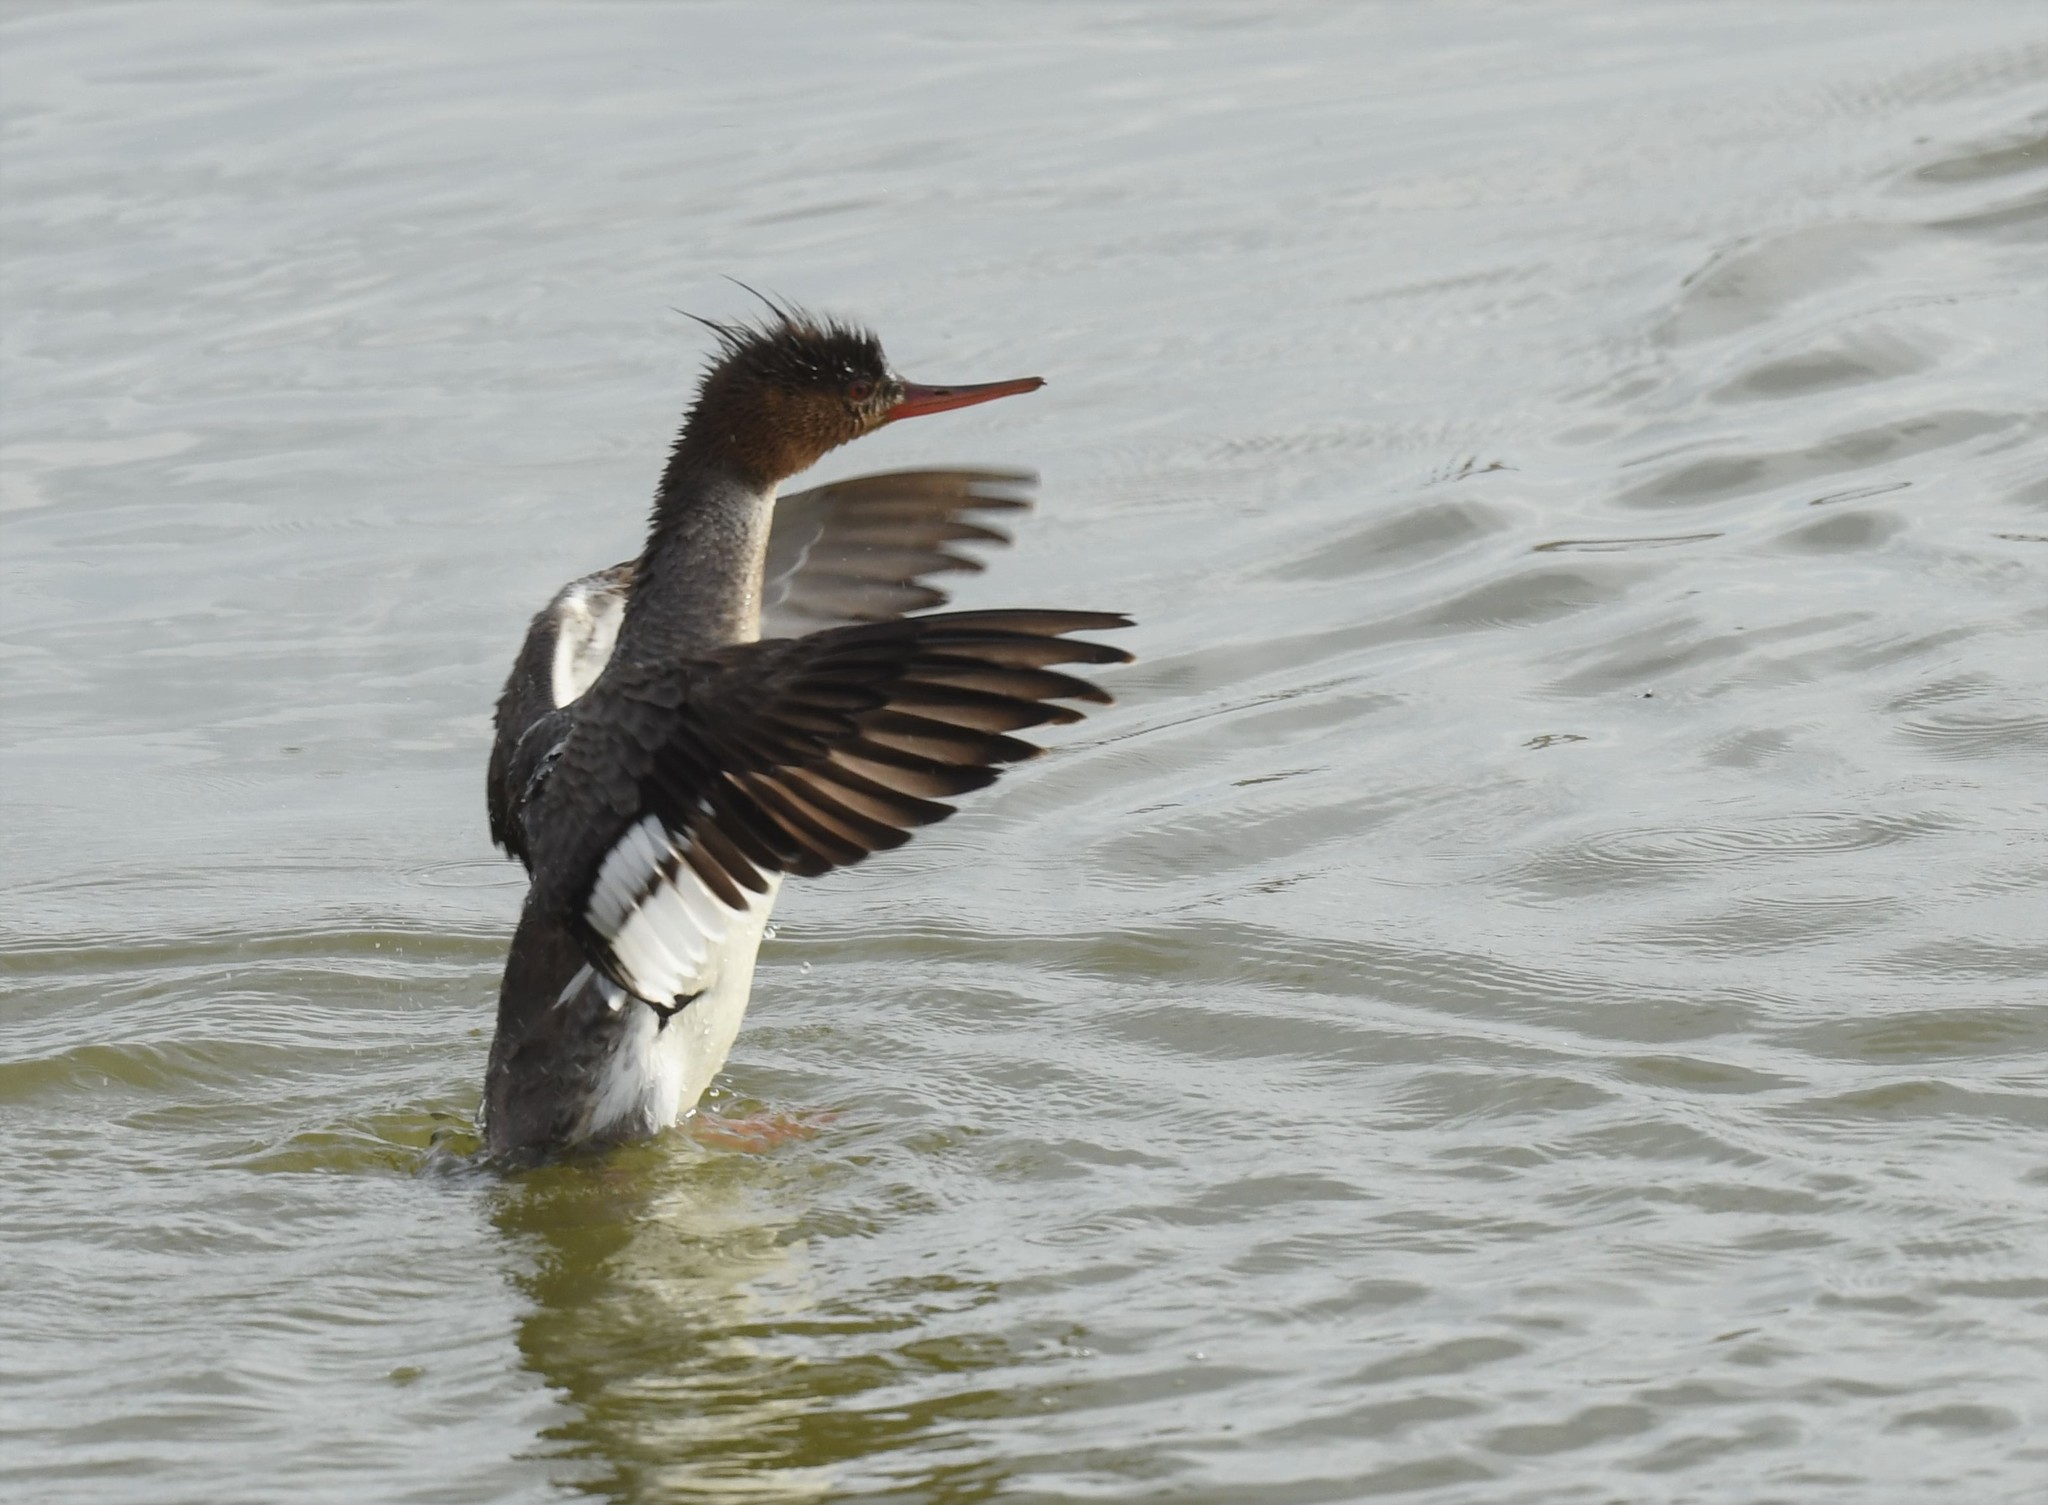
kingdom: Animalia
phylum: Chordata
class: Aves
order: Anseriformes
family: Anatidae
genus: Mergus
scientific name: Mergus serrator
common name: Red-breasted merganser
